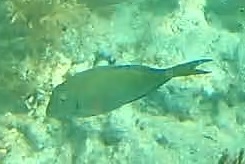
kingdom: Animalia
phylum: Chordata
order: Perciformes
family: Acanthuridae
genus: Acanthurus
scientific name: Acanthurus
